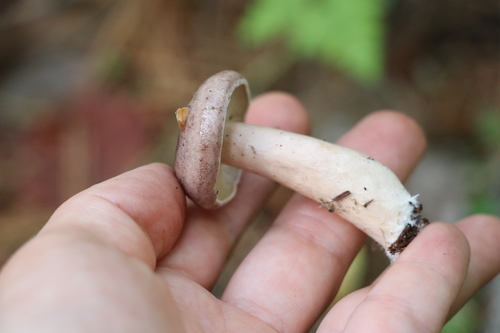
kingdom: Fungi
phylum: Basidiomycota
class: Agaricomycetes
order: Russulales
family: Russulaceae
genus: Lactarius
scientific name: Lactarius trivialis
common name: Tacked milkcap
